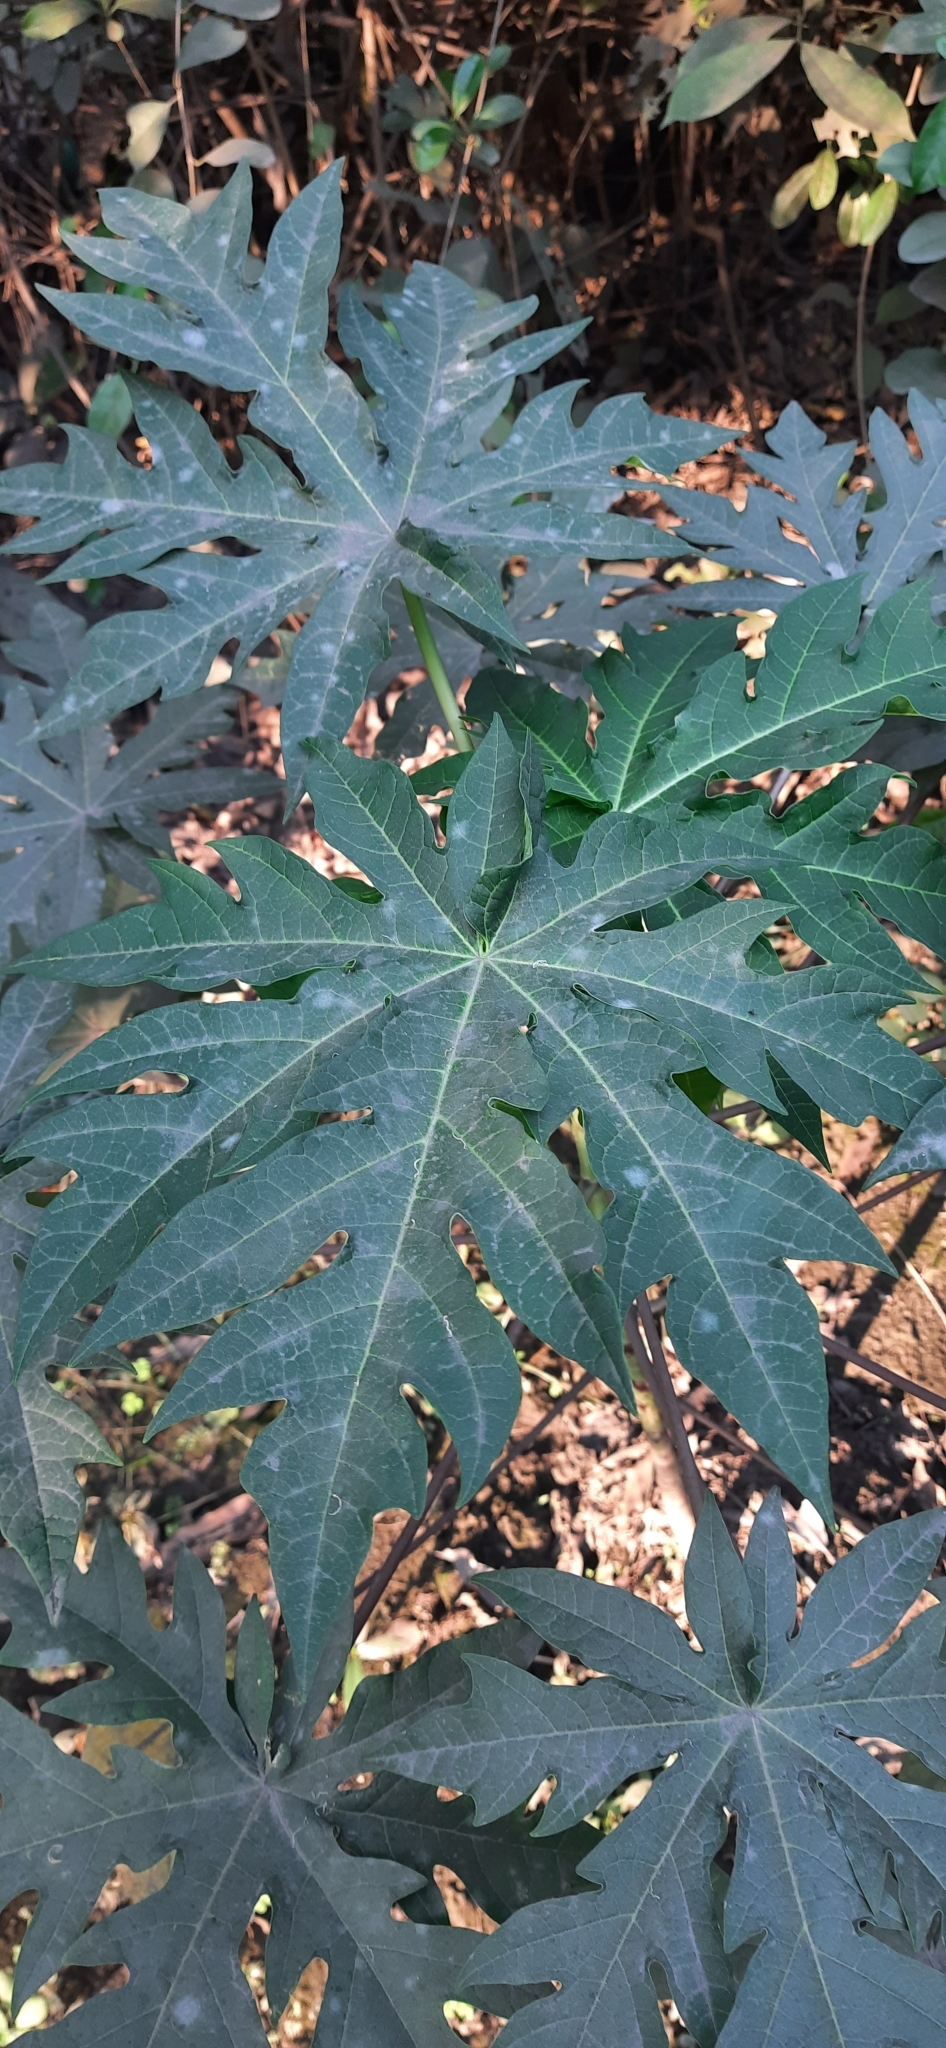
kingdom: Plantae
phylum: Tracheophyta
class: Magnoliopsida
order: Brassicales
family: Caricaceae
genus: Carica
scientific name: Carica papaya
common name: Papaya
